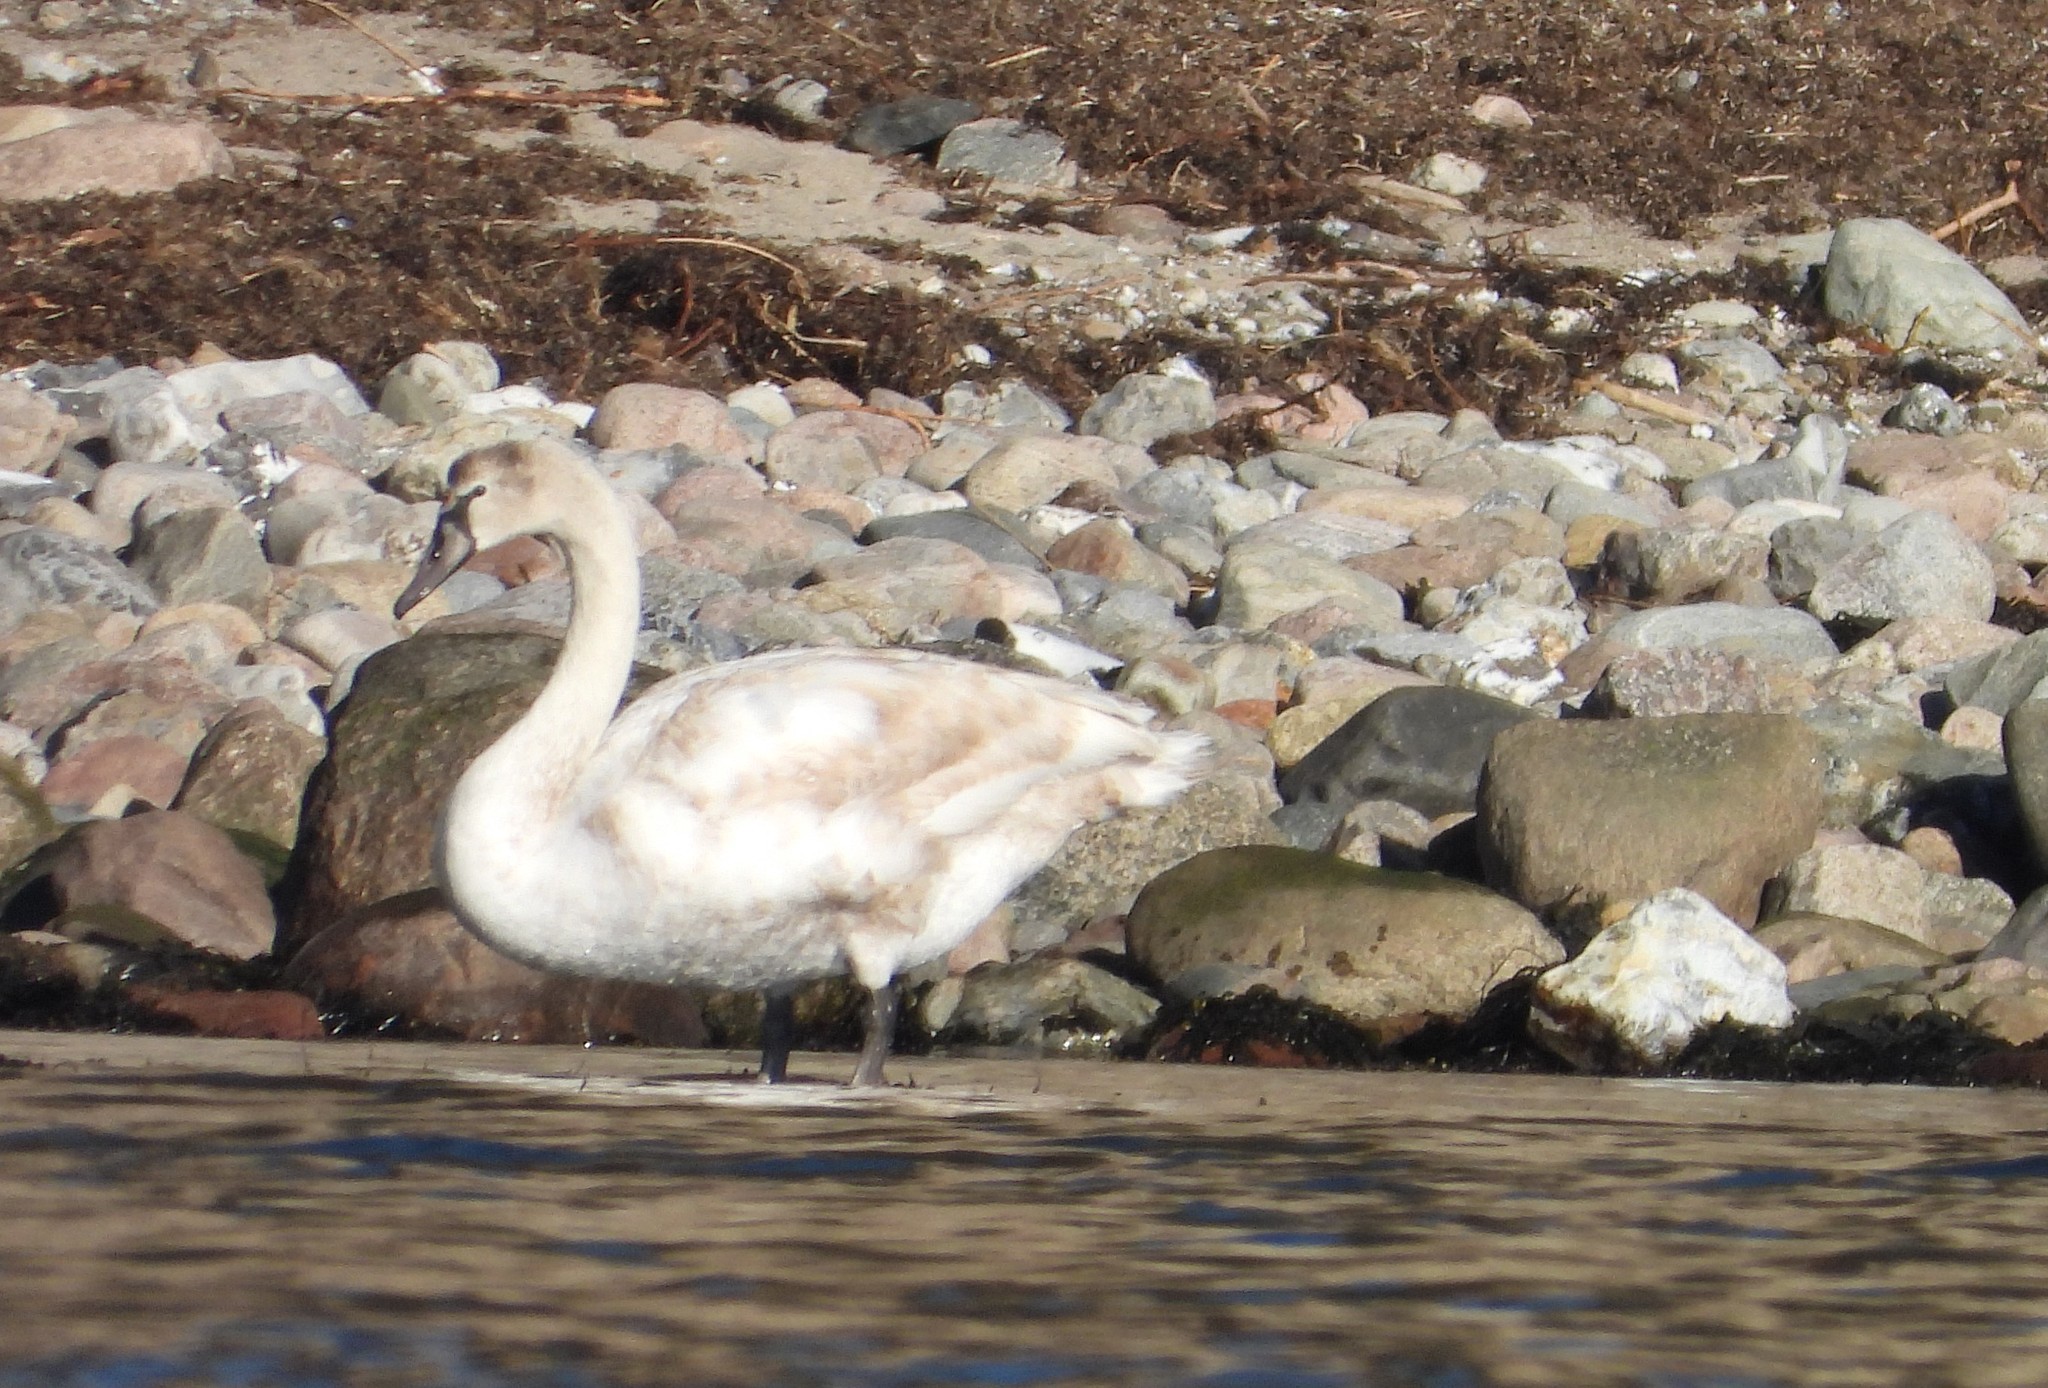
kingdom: Animalia
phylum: Chordata
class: Aves
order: Anseriformes
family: Anatidae
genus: Cygnus
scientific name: Cygnus olor
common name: Mute swan
